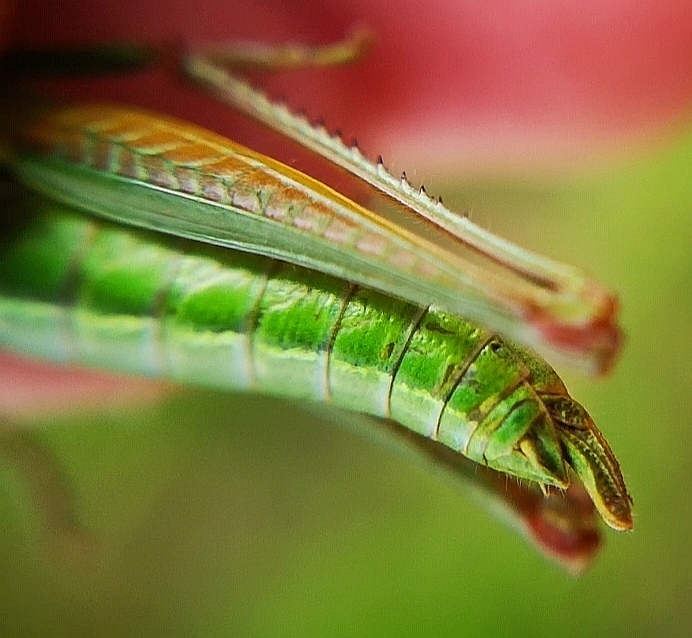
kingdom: Animalia
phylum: Arthropoda
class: Insecta
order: Orthoptera
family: Acrididae
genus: Euthystira
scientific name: Euthystira brachyptera
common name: Small gold grasshopper
